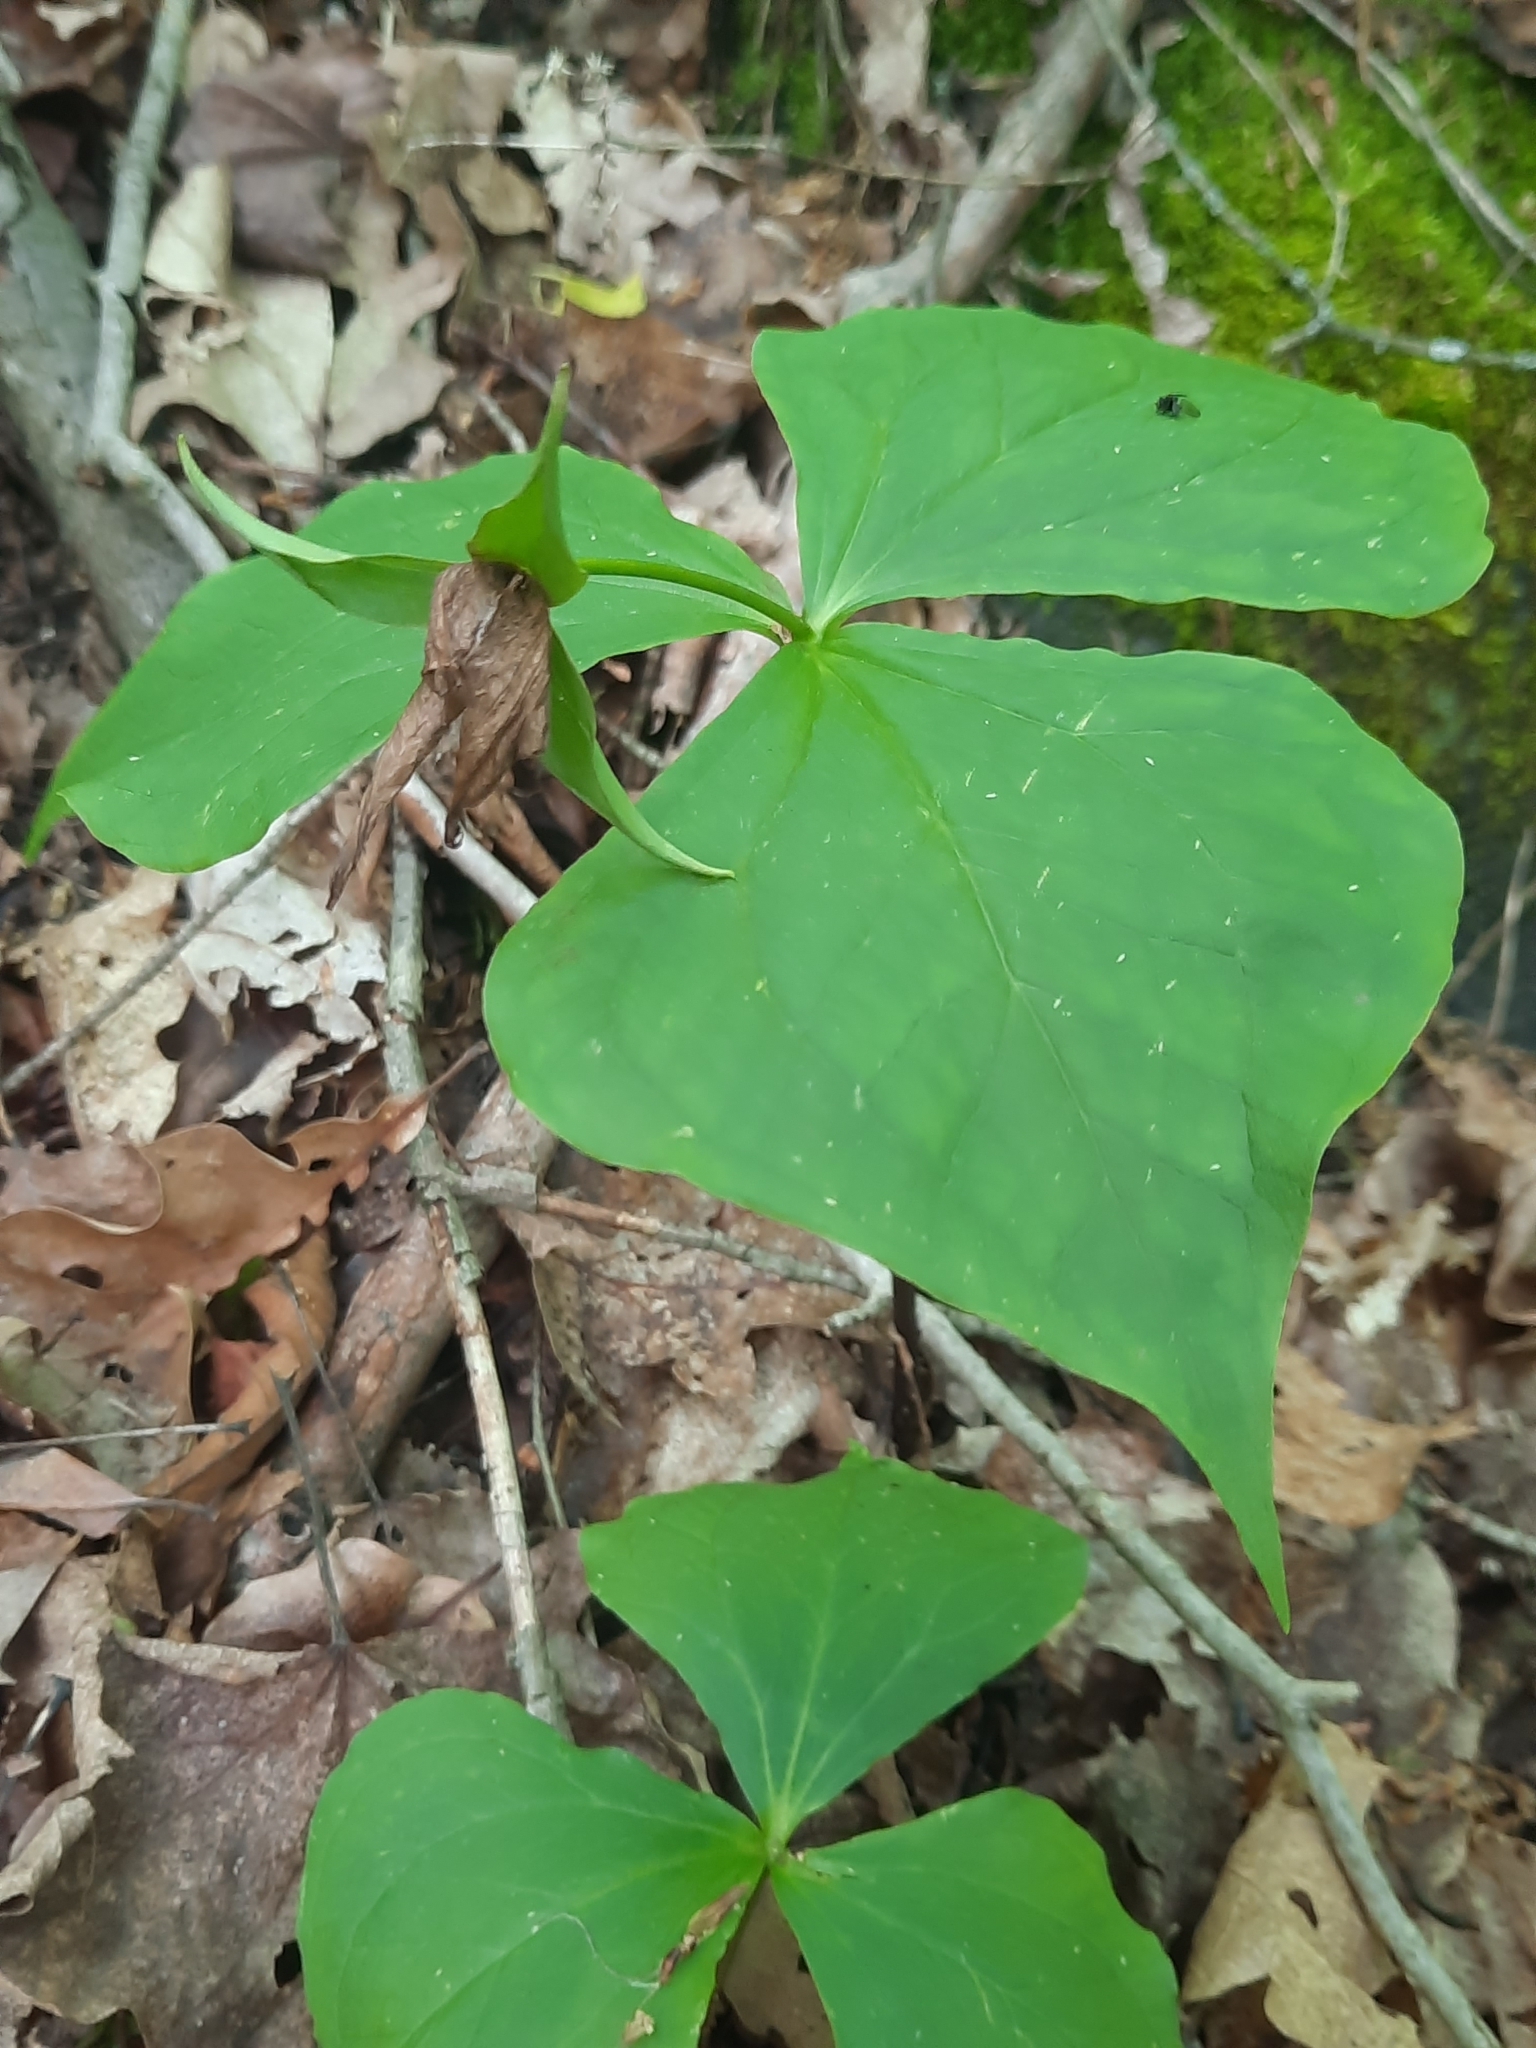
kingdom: Plantae
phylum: Tracheophyta
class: Liliopsida
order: Liliales
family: Melanthiaceae
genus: Trillium
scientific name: Trillium erectum
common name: Purple trillium
